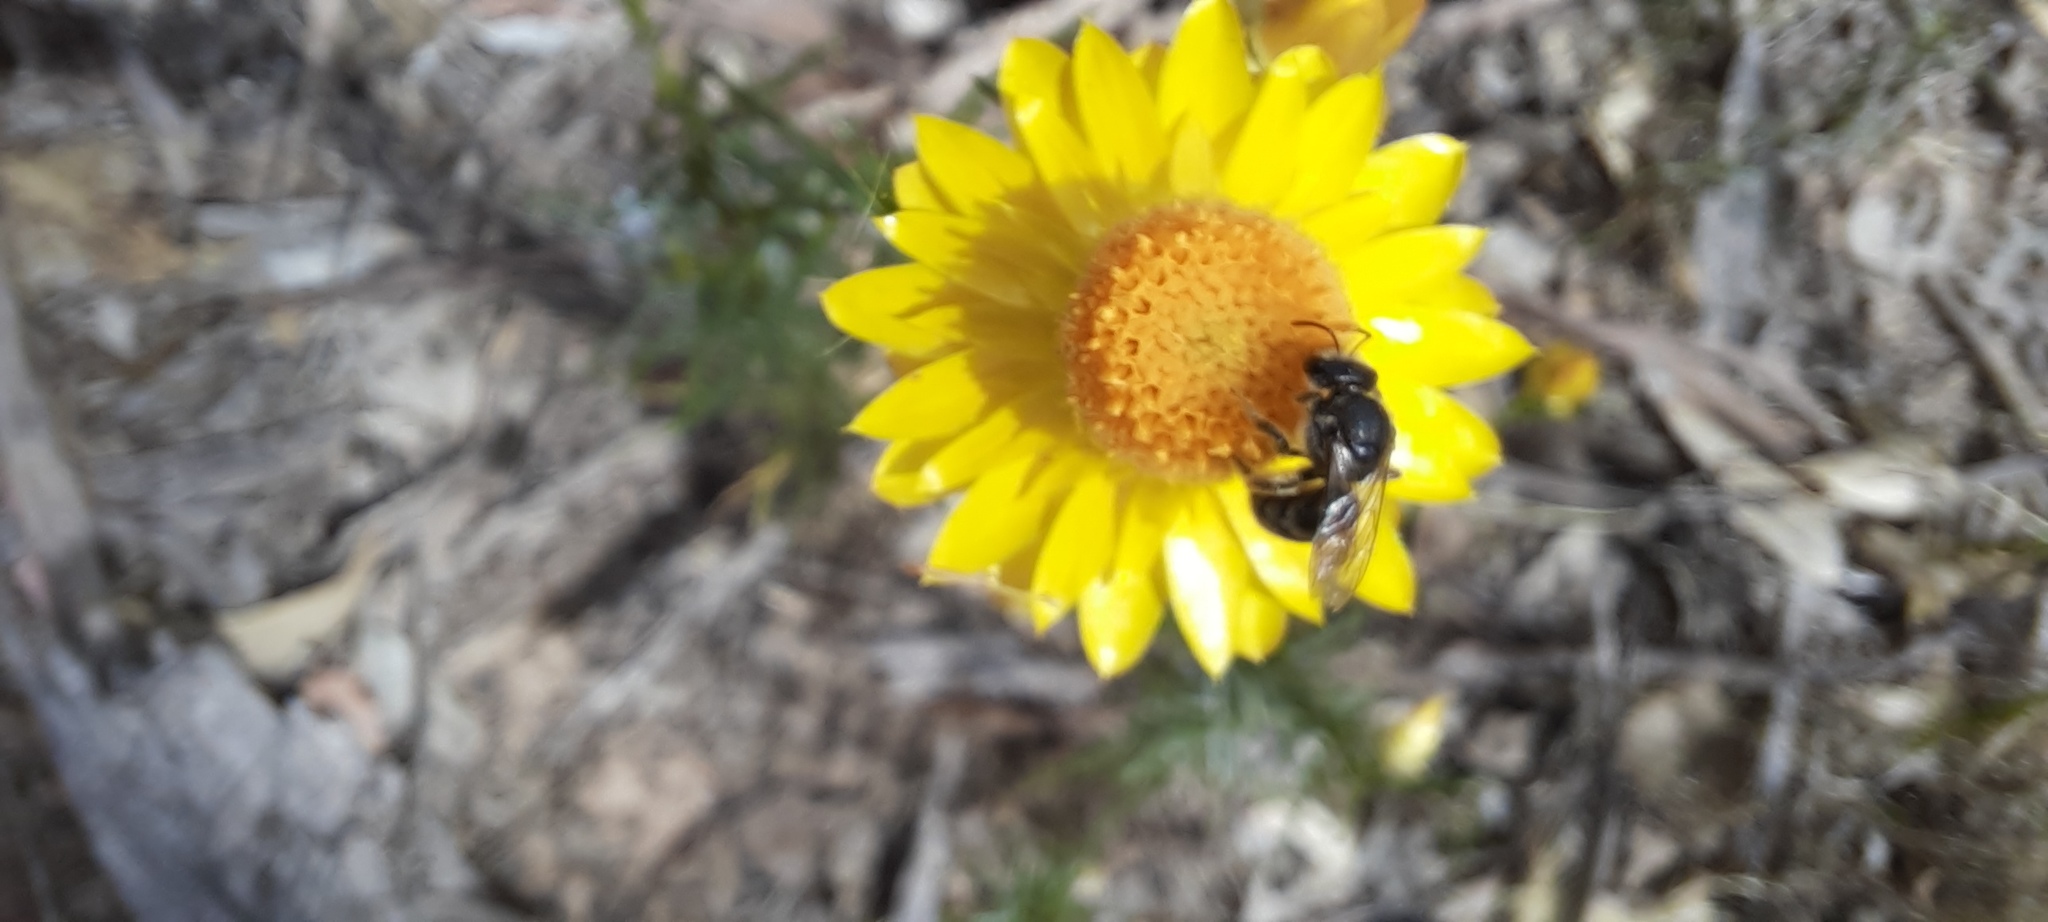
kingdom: Plantae
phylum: Tracheophyta
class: Magnoliopsida
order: Asterales
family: Asteraceae
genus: Xerochrysum
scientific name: Xerochrysum viscosum
